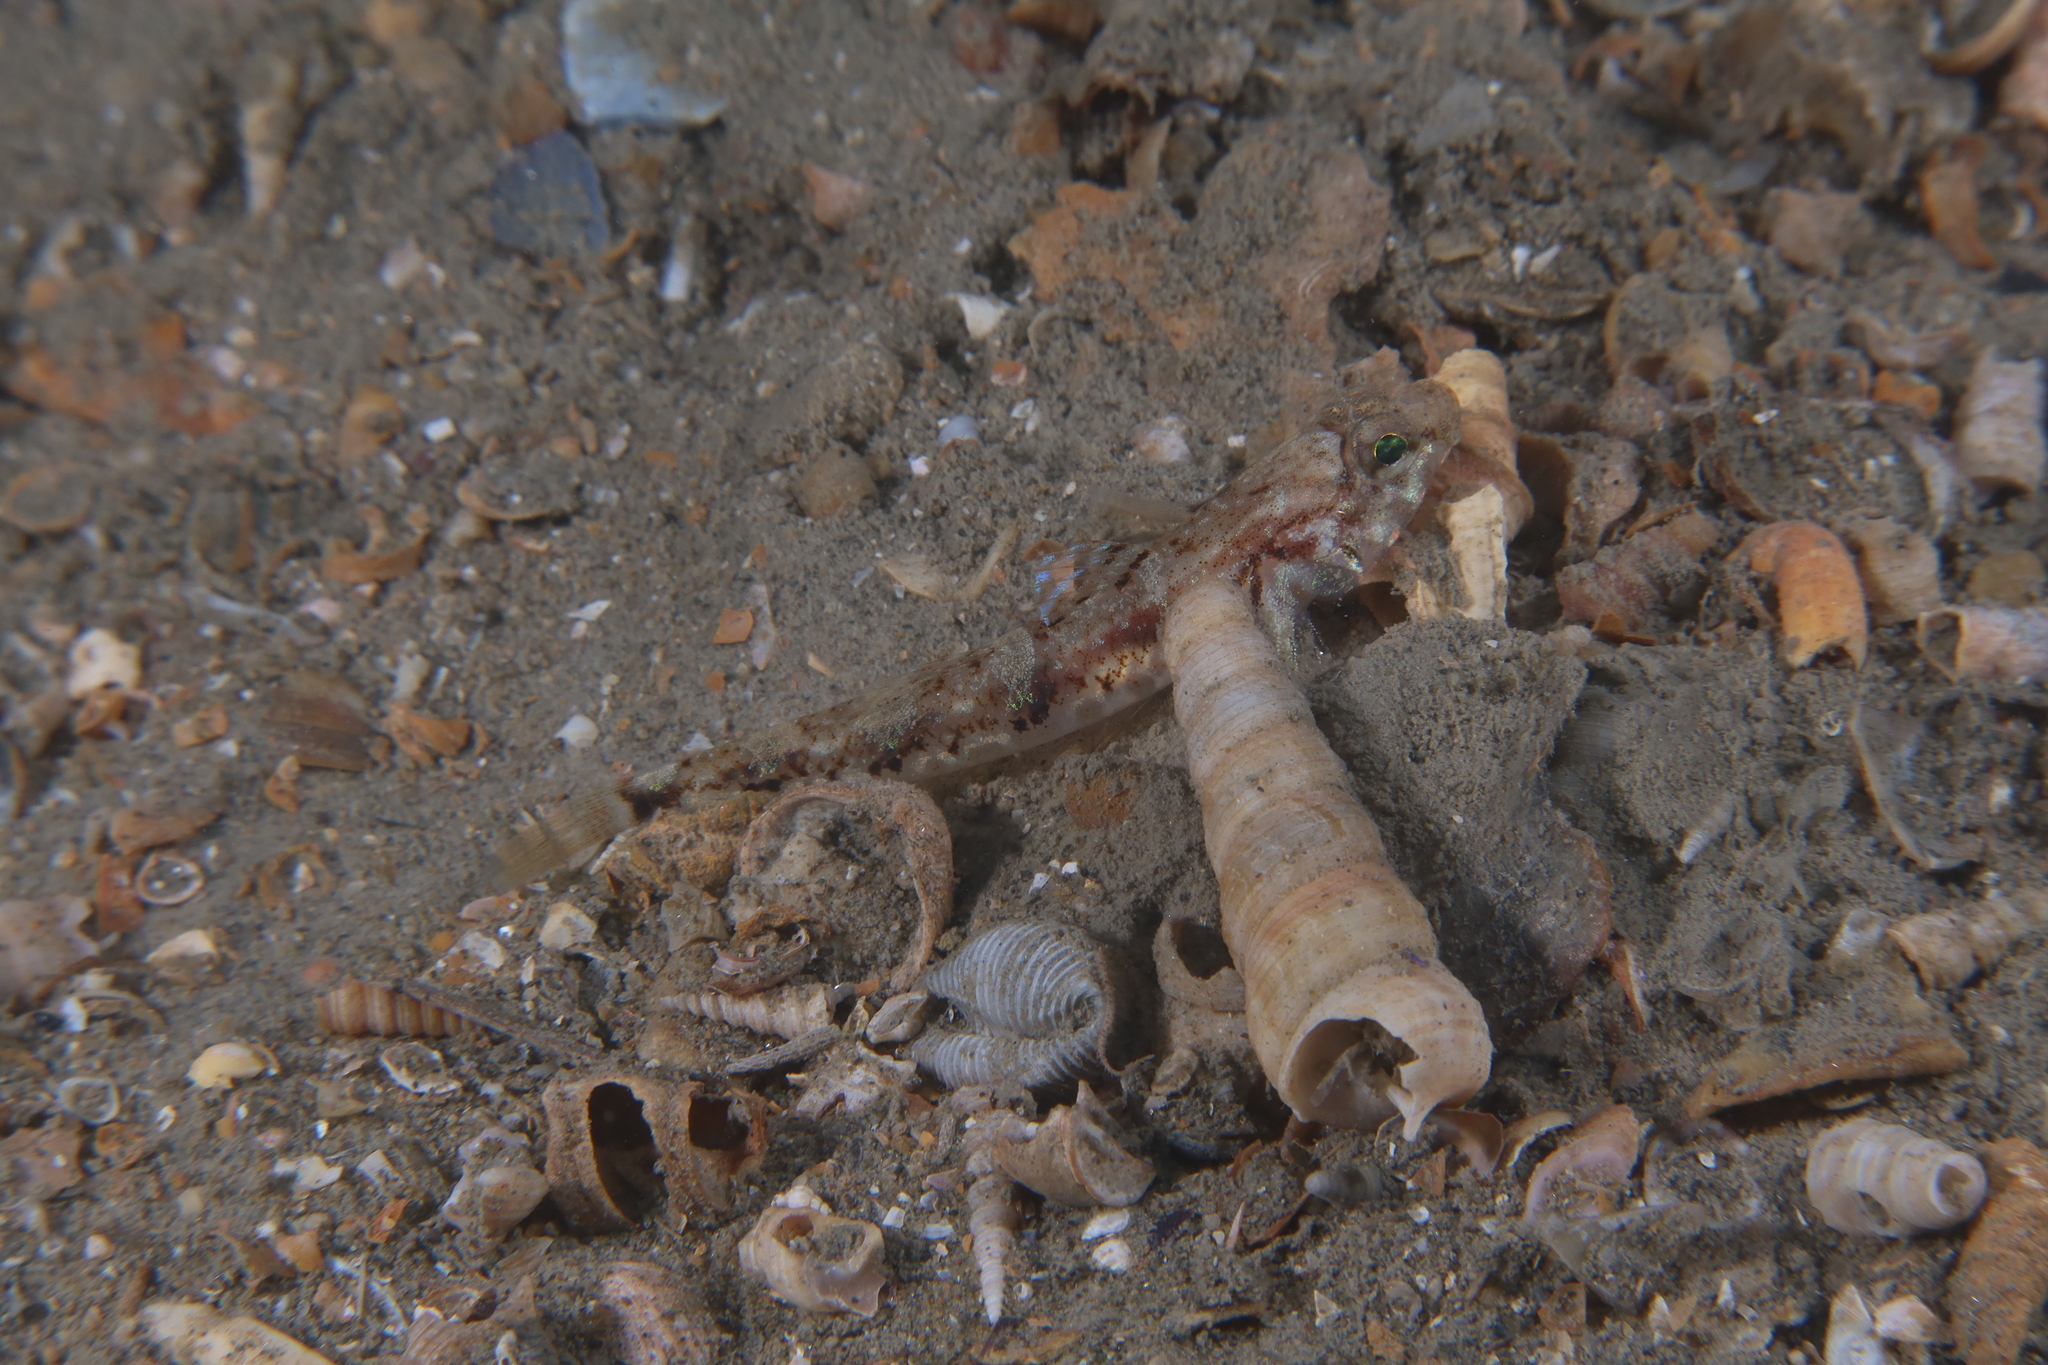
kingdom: Animalia
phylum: Chordata
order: Perciformes
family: Gobiidae
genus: Pomatoschistus
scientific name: Pomatoschistus pictus
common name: Painted goby
